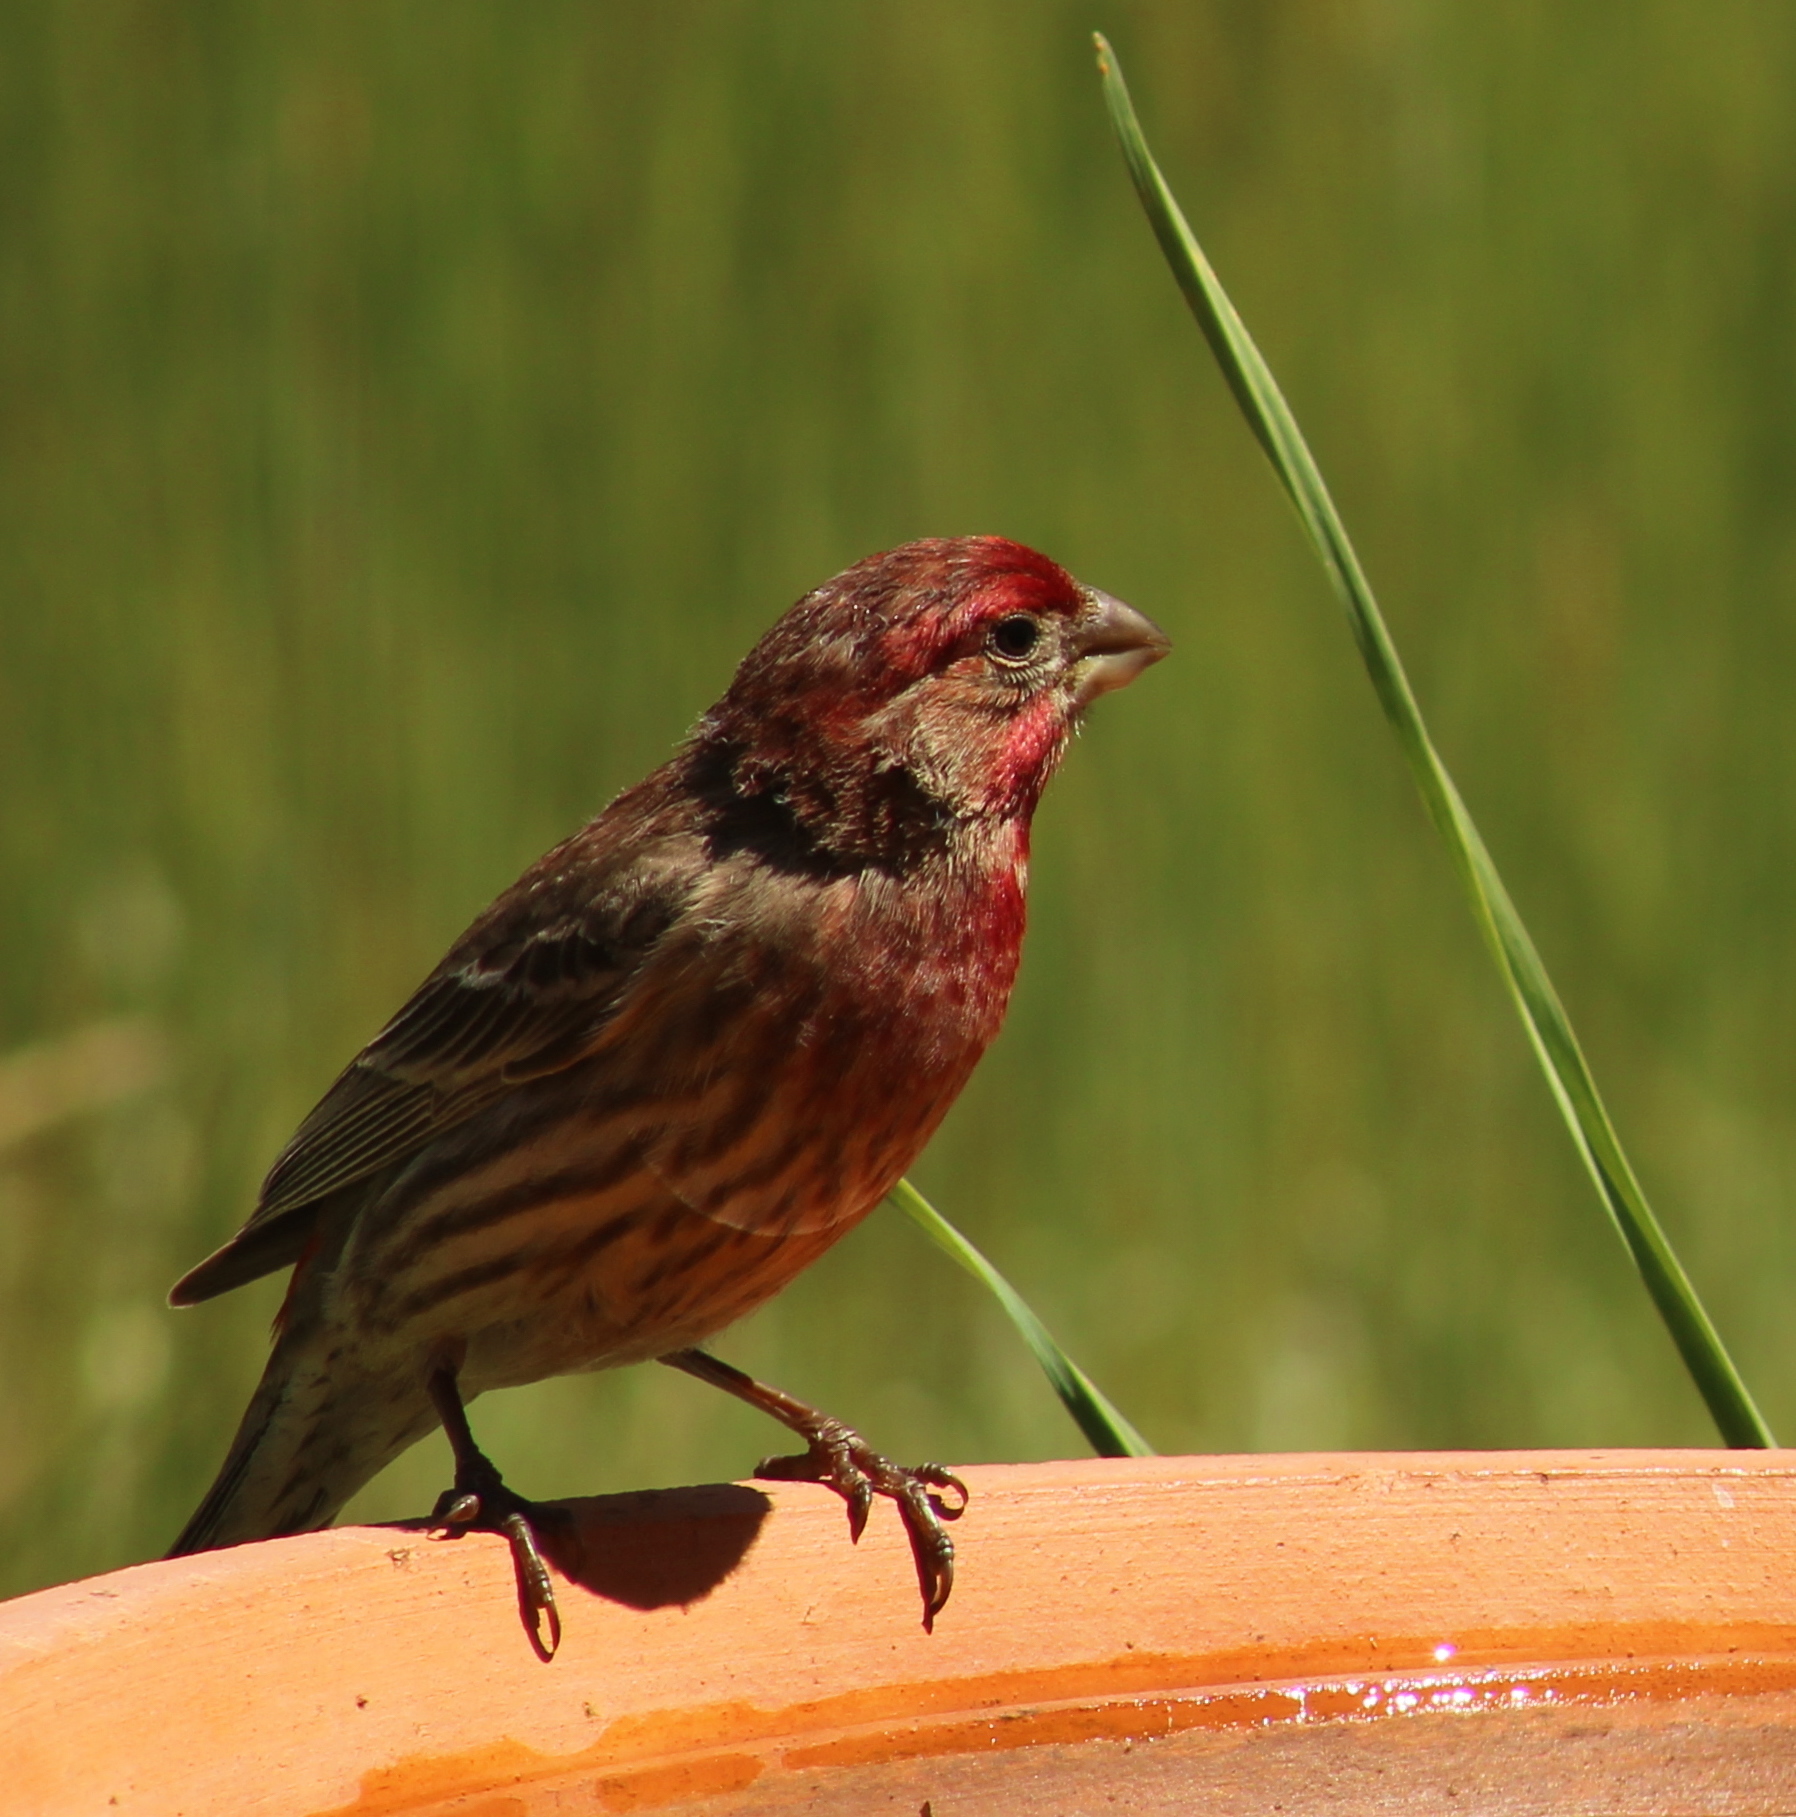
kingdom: Animalia
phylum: Chordata
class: Aves
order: Passeriformes
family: Fringillidae
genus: Haemorhous
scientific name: Haemorhous mexicanus
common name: House finch
